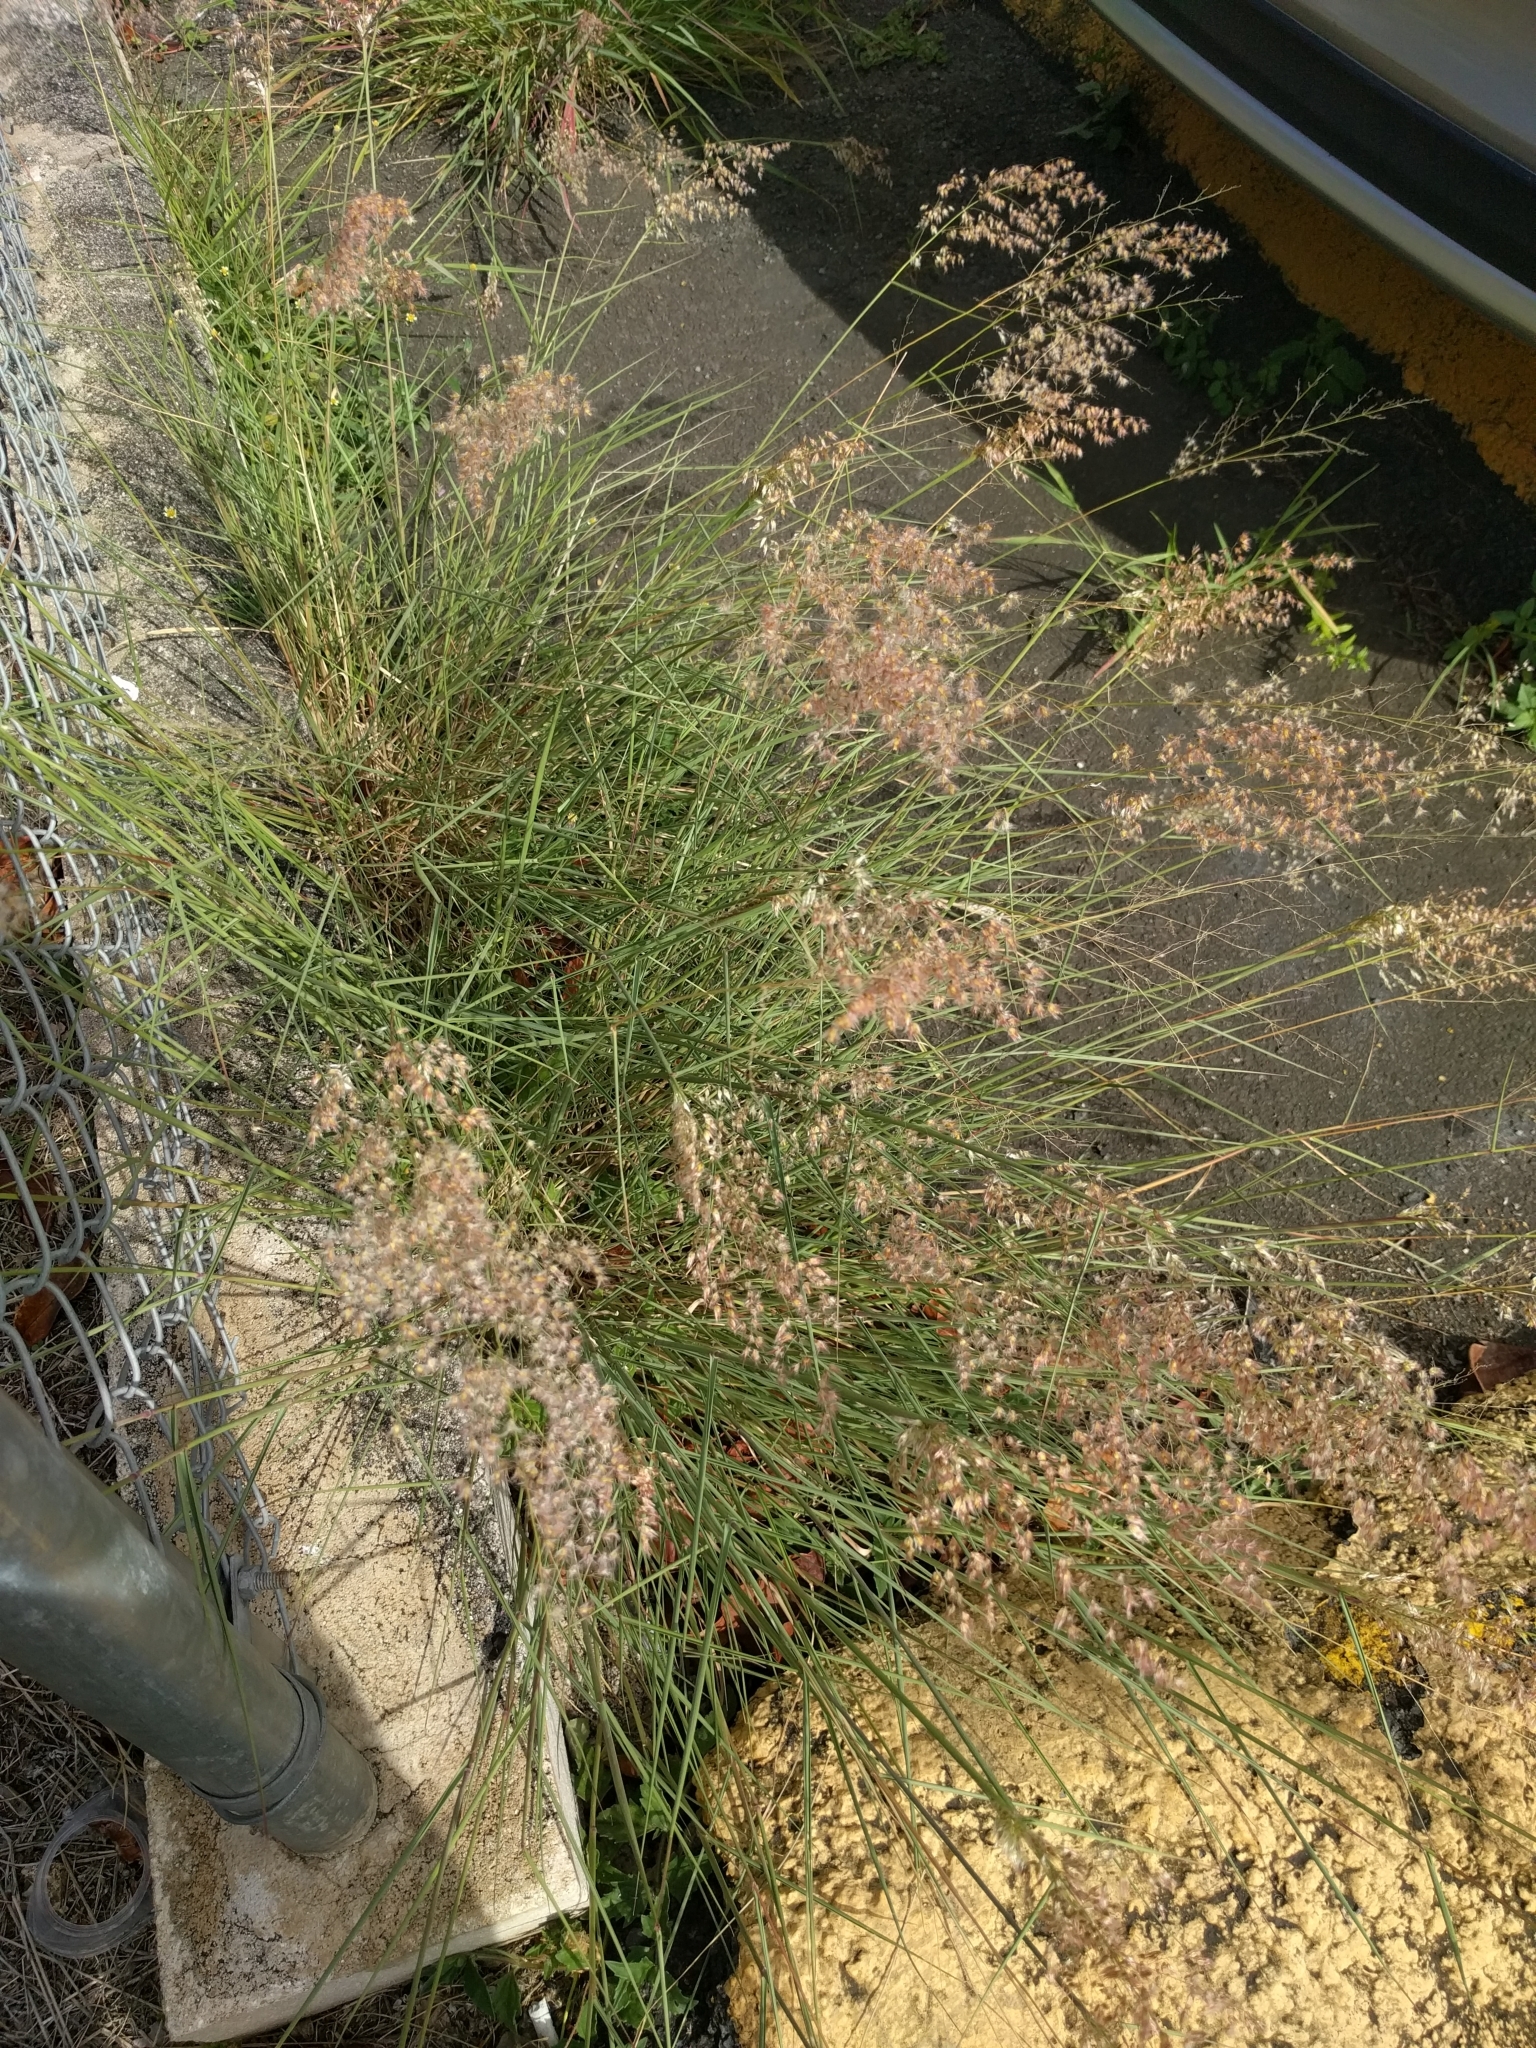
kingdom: Plantae
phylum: Tracheophyta
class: Liliopsida
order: Poales
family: Poaceae
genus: Melinis
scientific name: Melinis repens
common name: Rose natal grass
